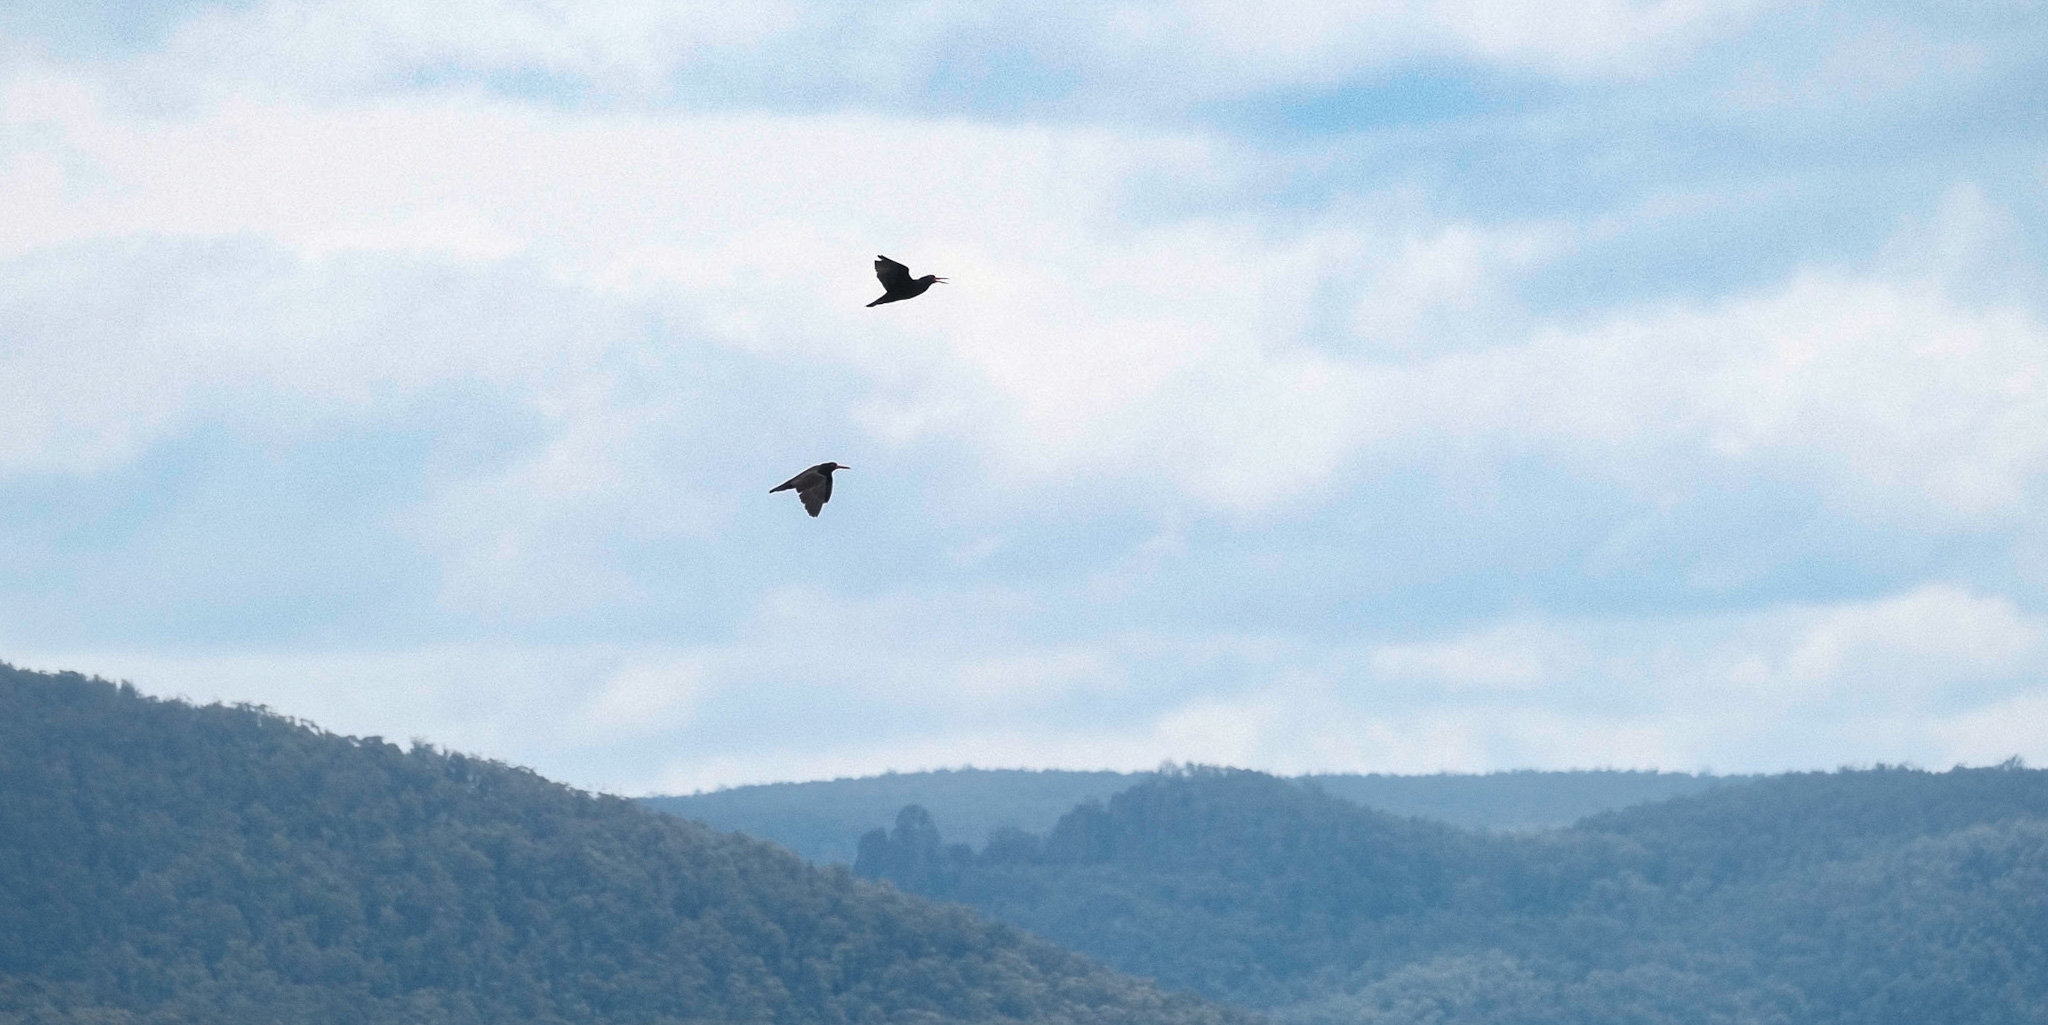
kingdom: Animalia
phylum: Chordata
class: Aves
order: Charadriiformes
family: Haematopodidae
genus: Haematopus
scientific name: Haematopus fuliginosus
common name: Sooty oystercatcher
